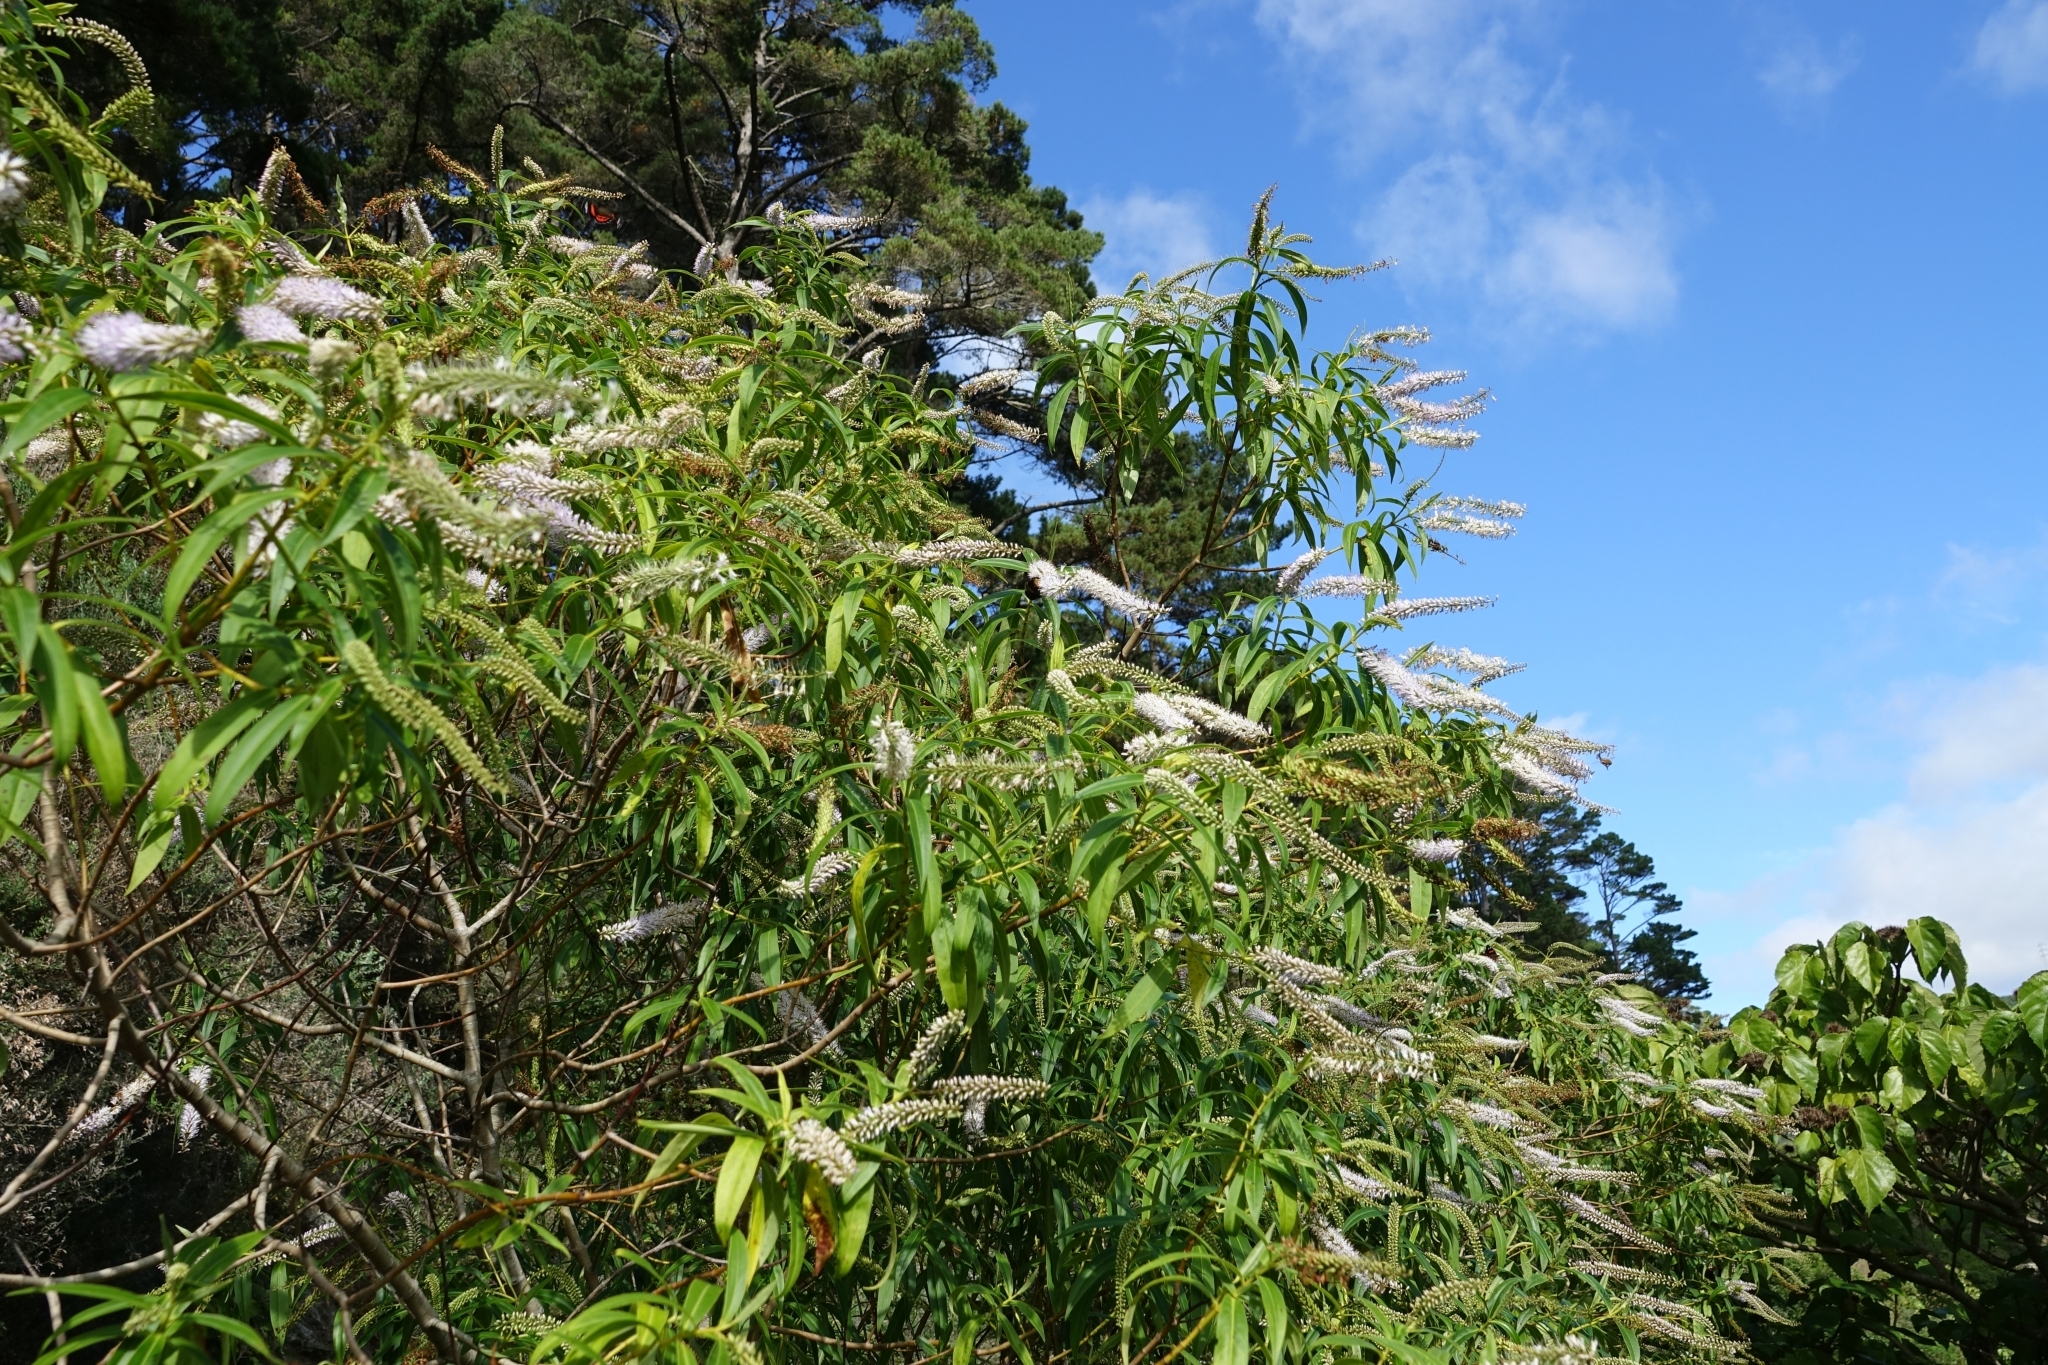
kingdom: Plantae
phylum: Tracheophyta
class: Magnoliopsida
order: Lamiales
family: Plantaginaceae
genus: Veronica
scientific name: Veronica stricta
